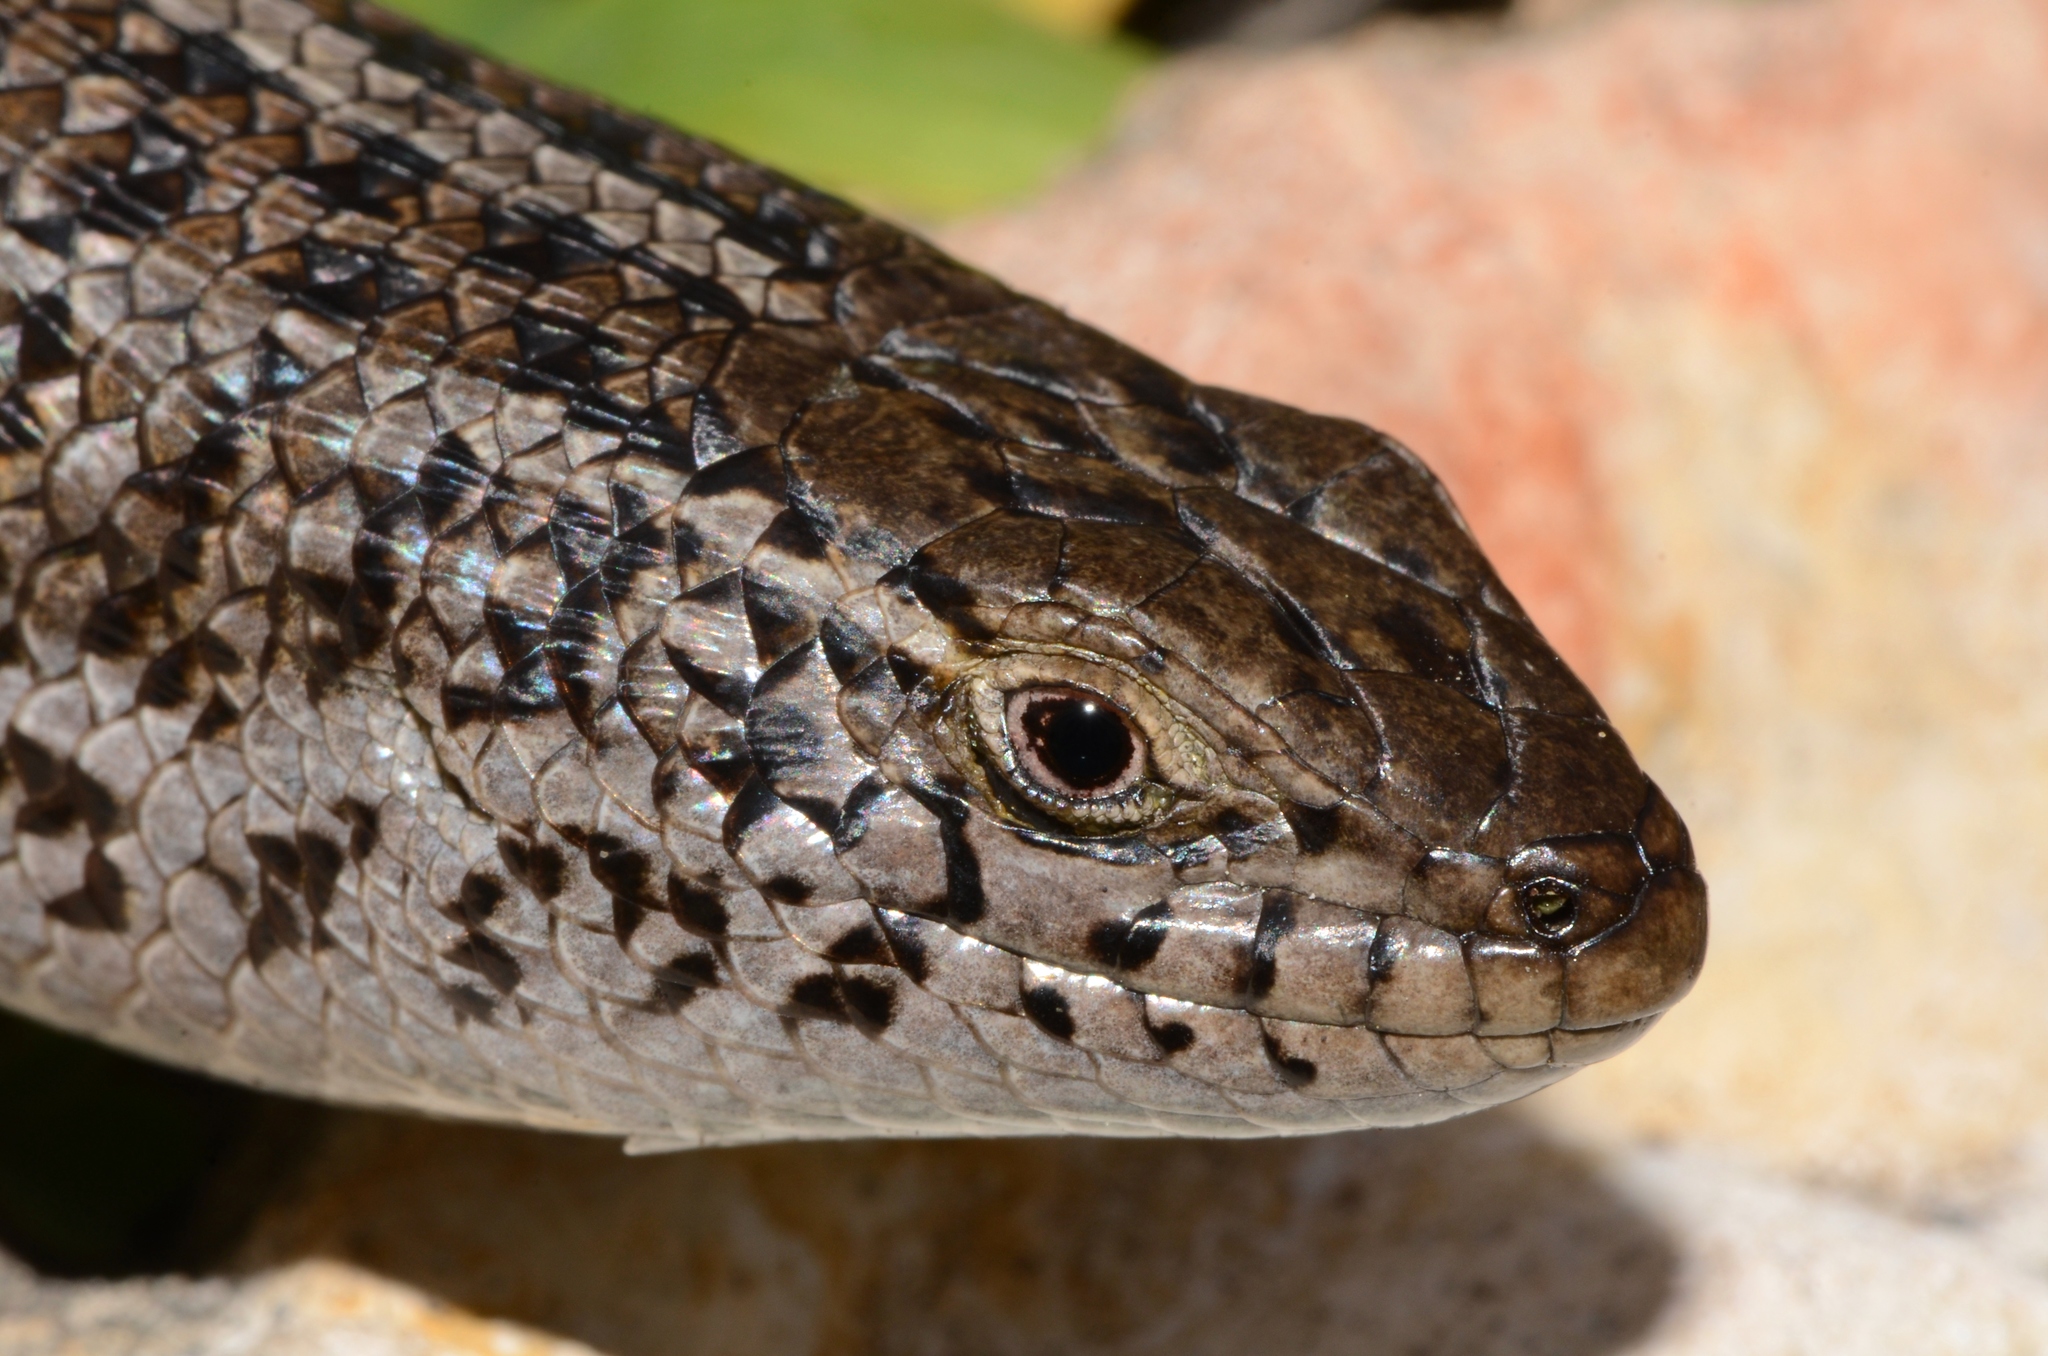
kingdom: Animalia
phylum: Chordata
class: Squamata
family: Scincidae
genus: Trachylepis
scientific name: Trachylepis capensis
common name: Cape skink
